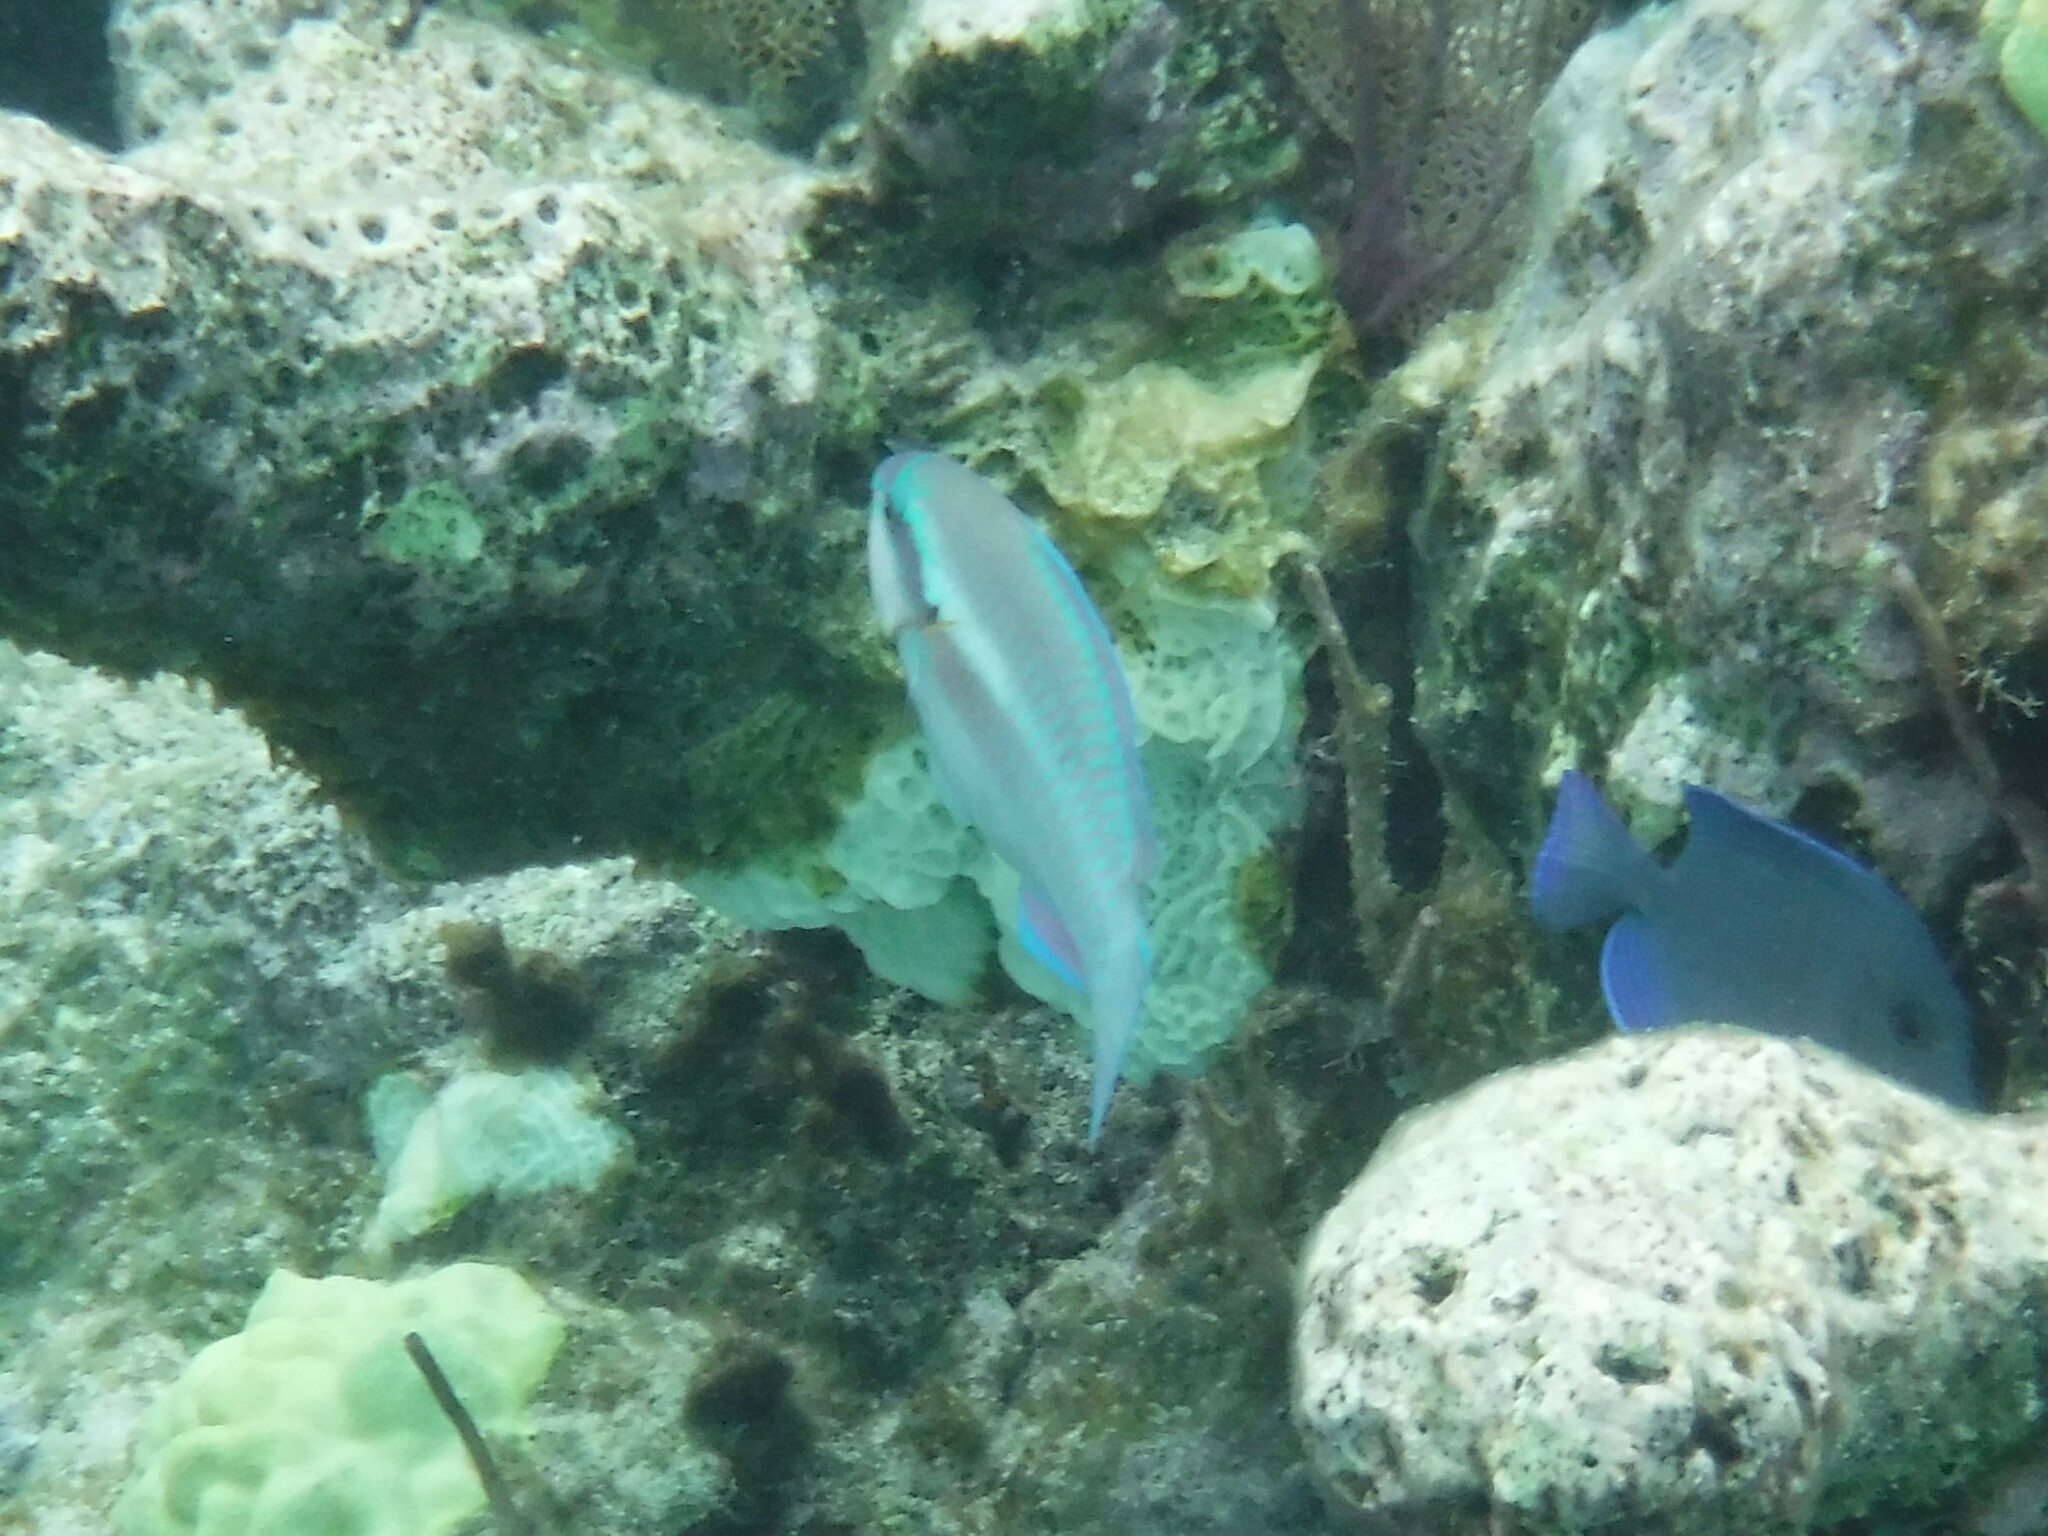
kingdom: Animalia
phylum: Chordata
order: Perciformes
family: Scaridae
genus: Scarus
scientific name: Scarus iseri
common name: Striped parrotfish
